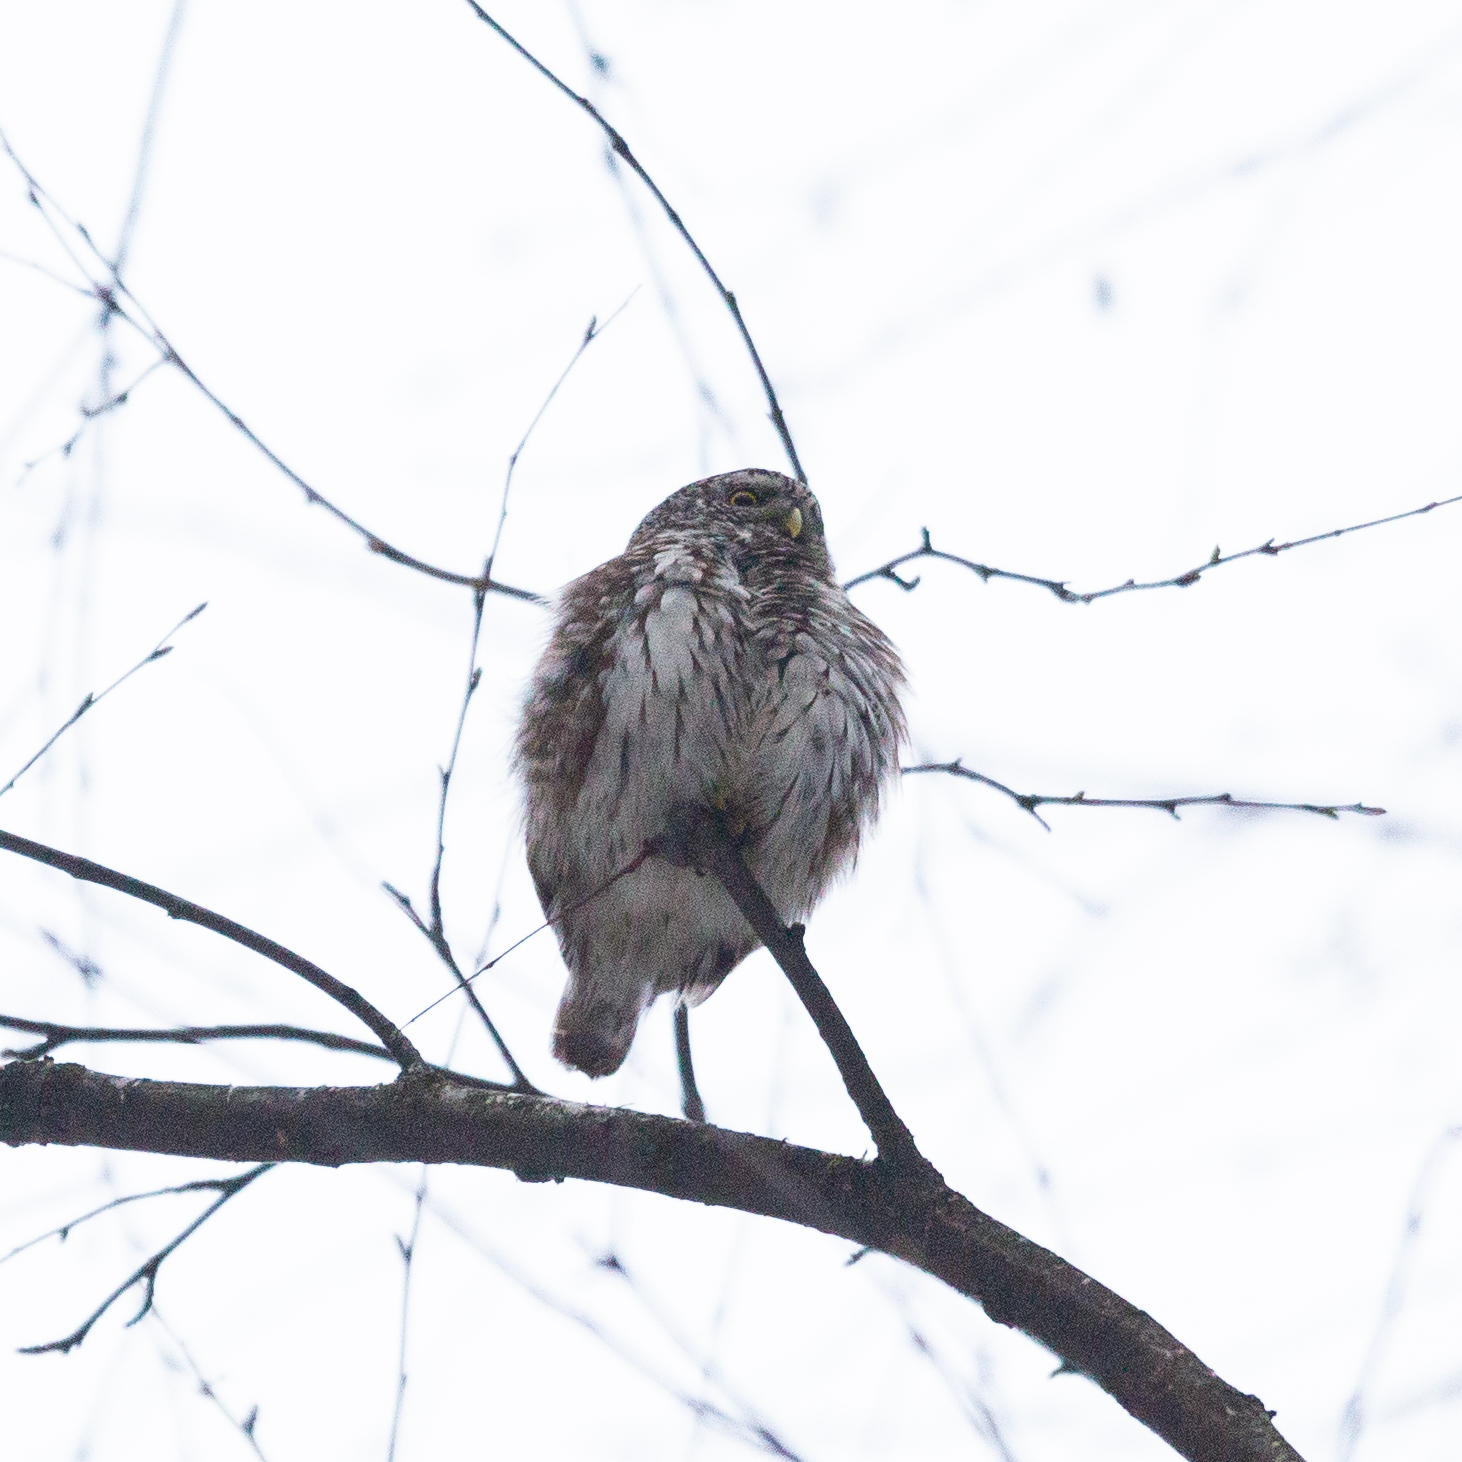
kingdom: Animalia
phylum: Chordata
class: Aves
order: Strigiformes
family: Strigidae
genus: Glaucidium
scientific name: Glaucidium passerinum
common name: Eurasian pygmy owl
